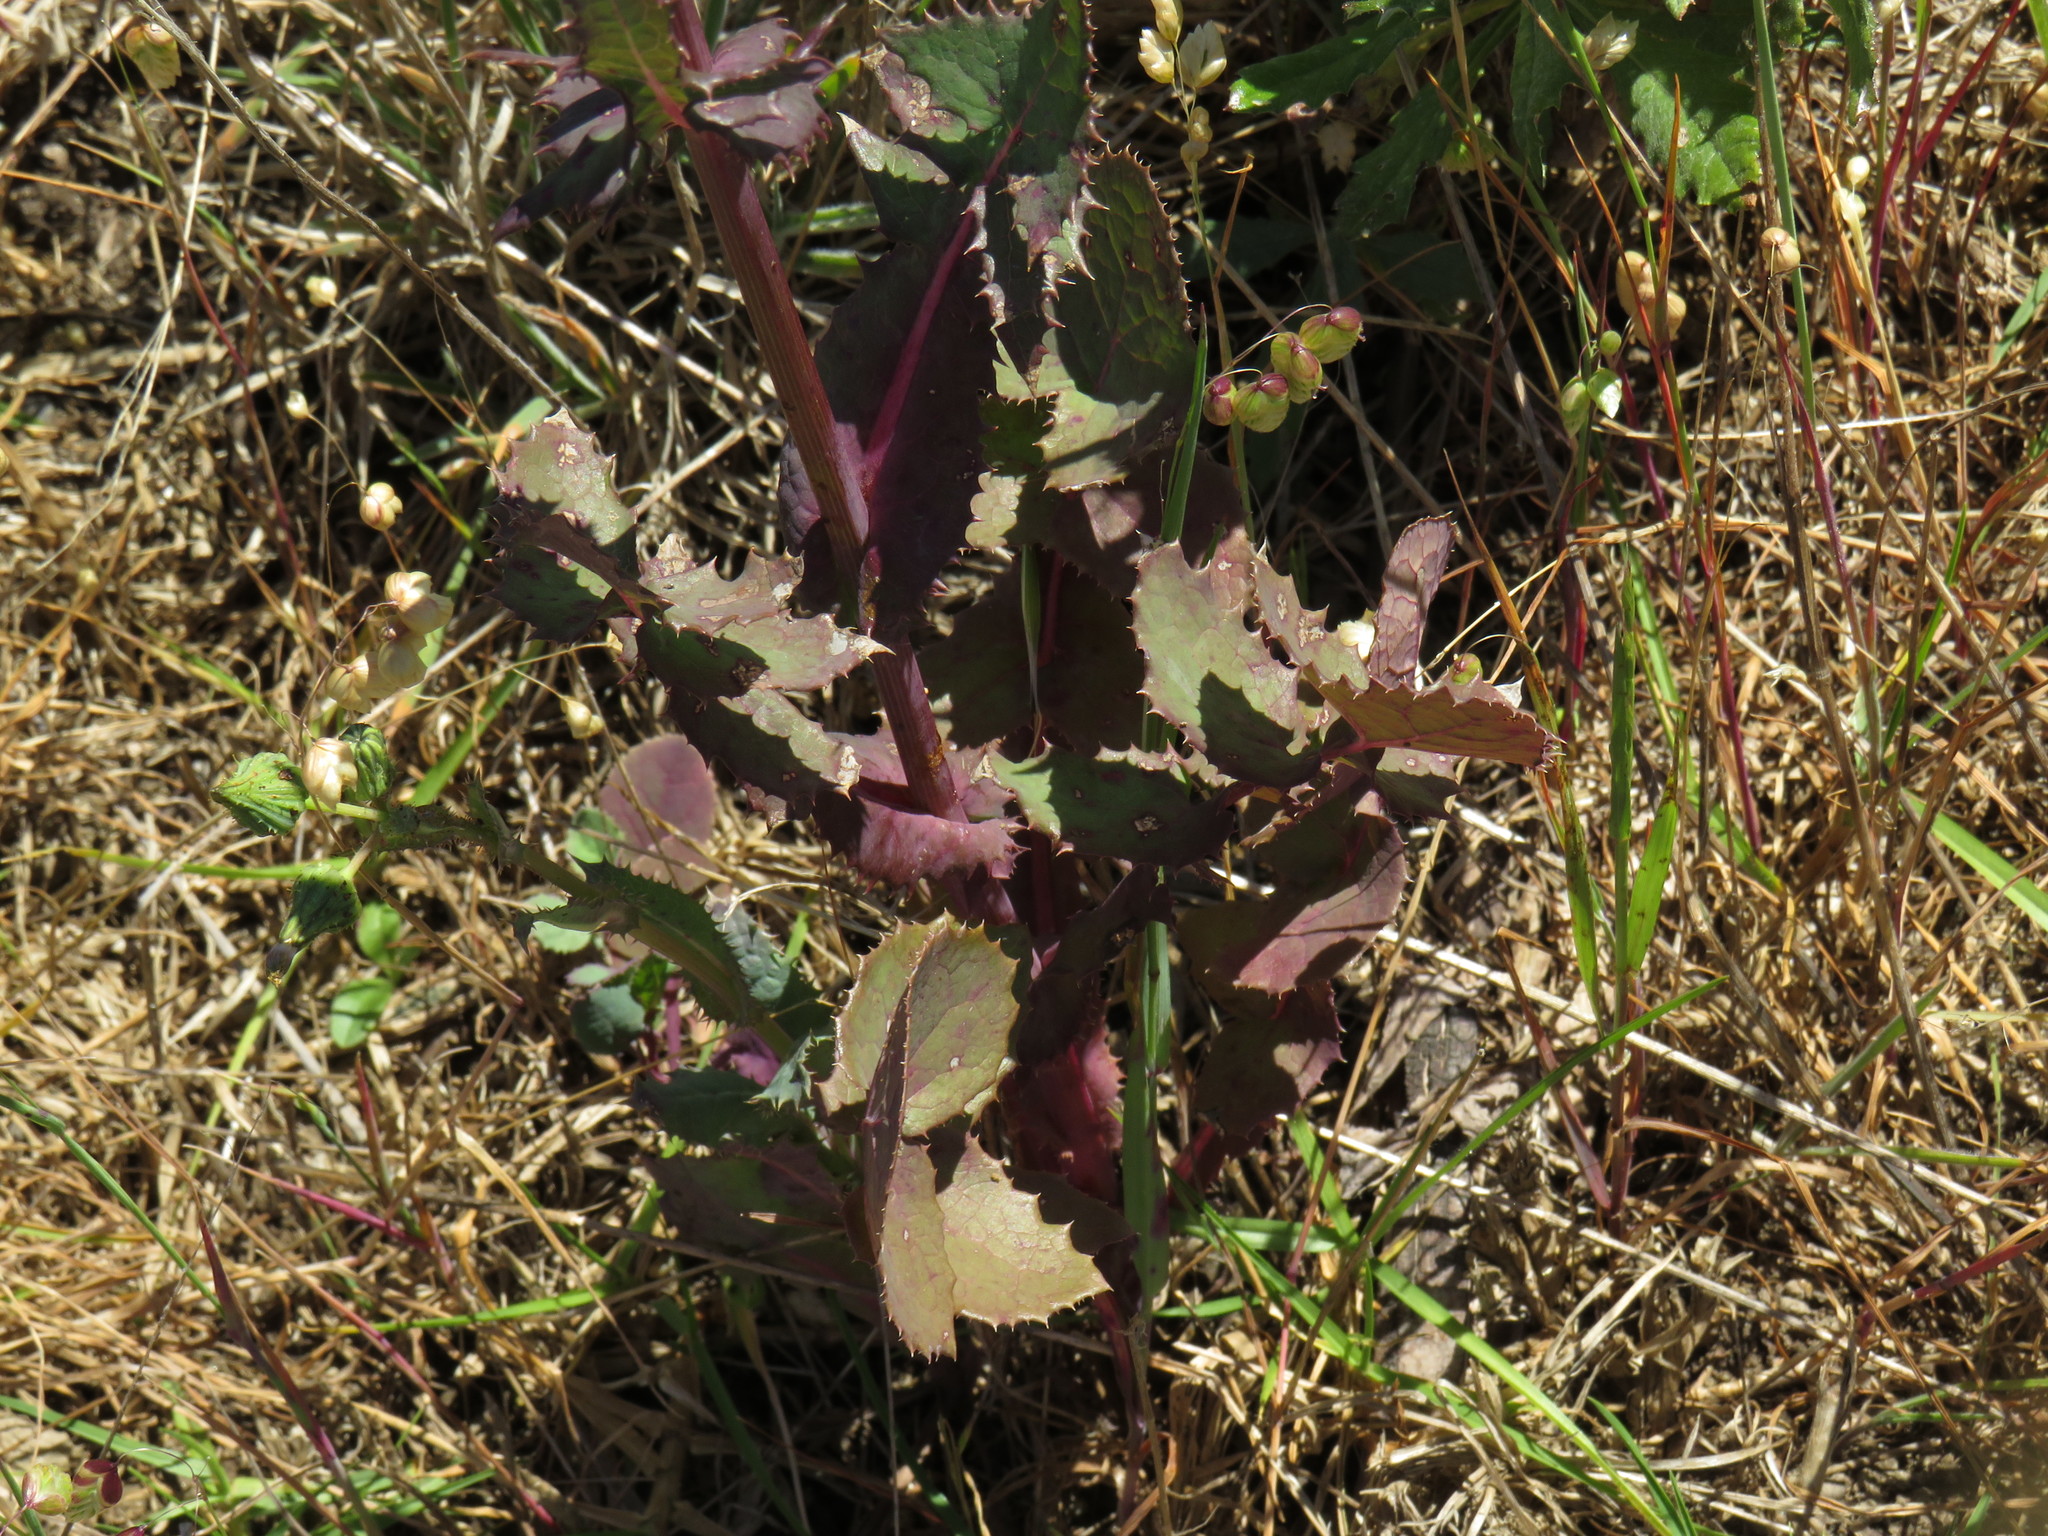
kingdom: Plantae
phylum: Tracheophyta
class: Magnoliopsida
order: Asterales
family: Asteraceae
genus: Sonchus
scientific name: Sonchus oleraceus
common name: Common sowthistle
